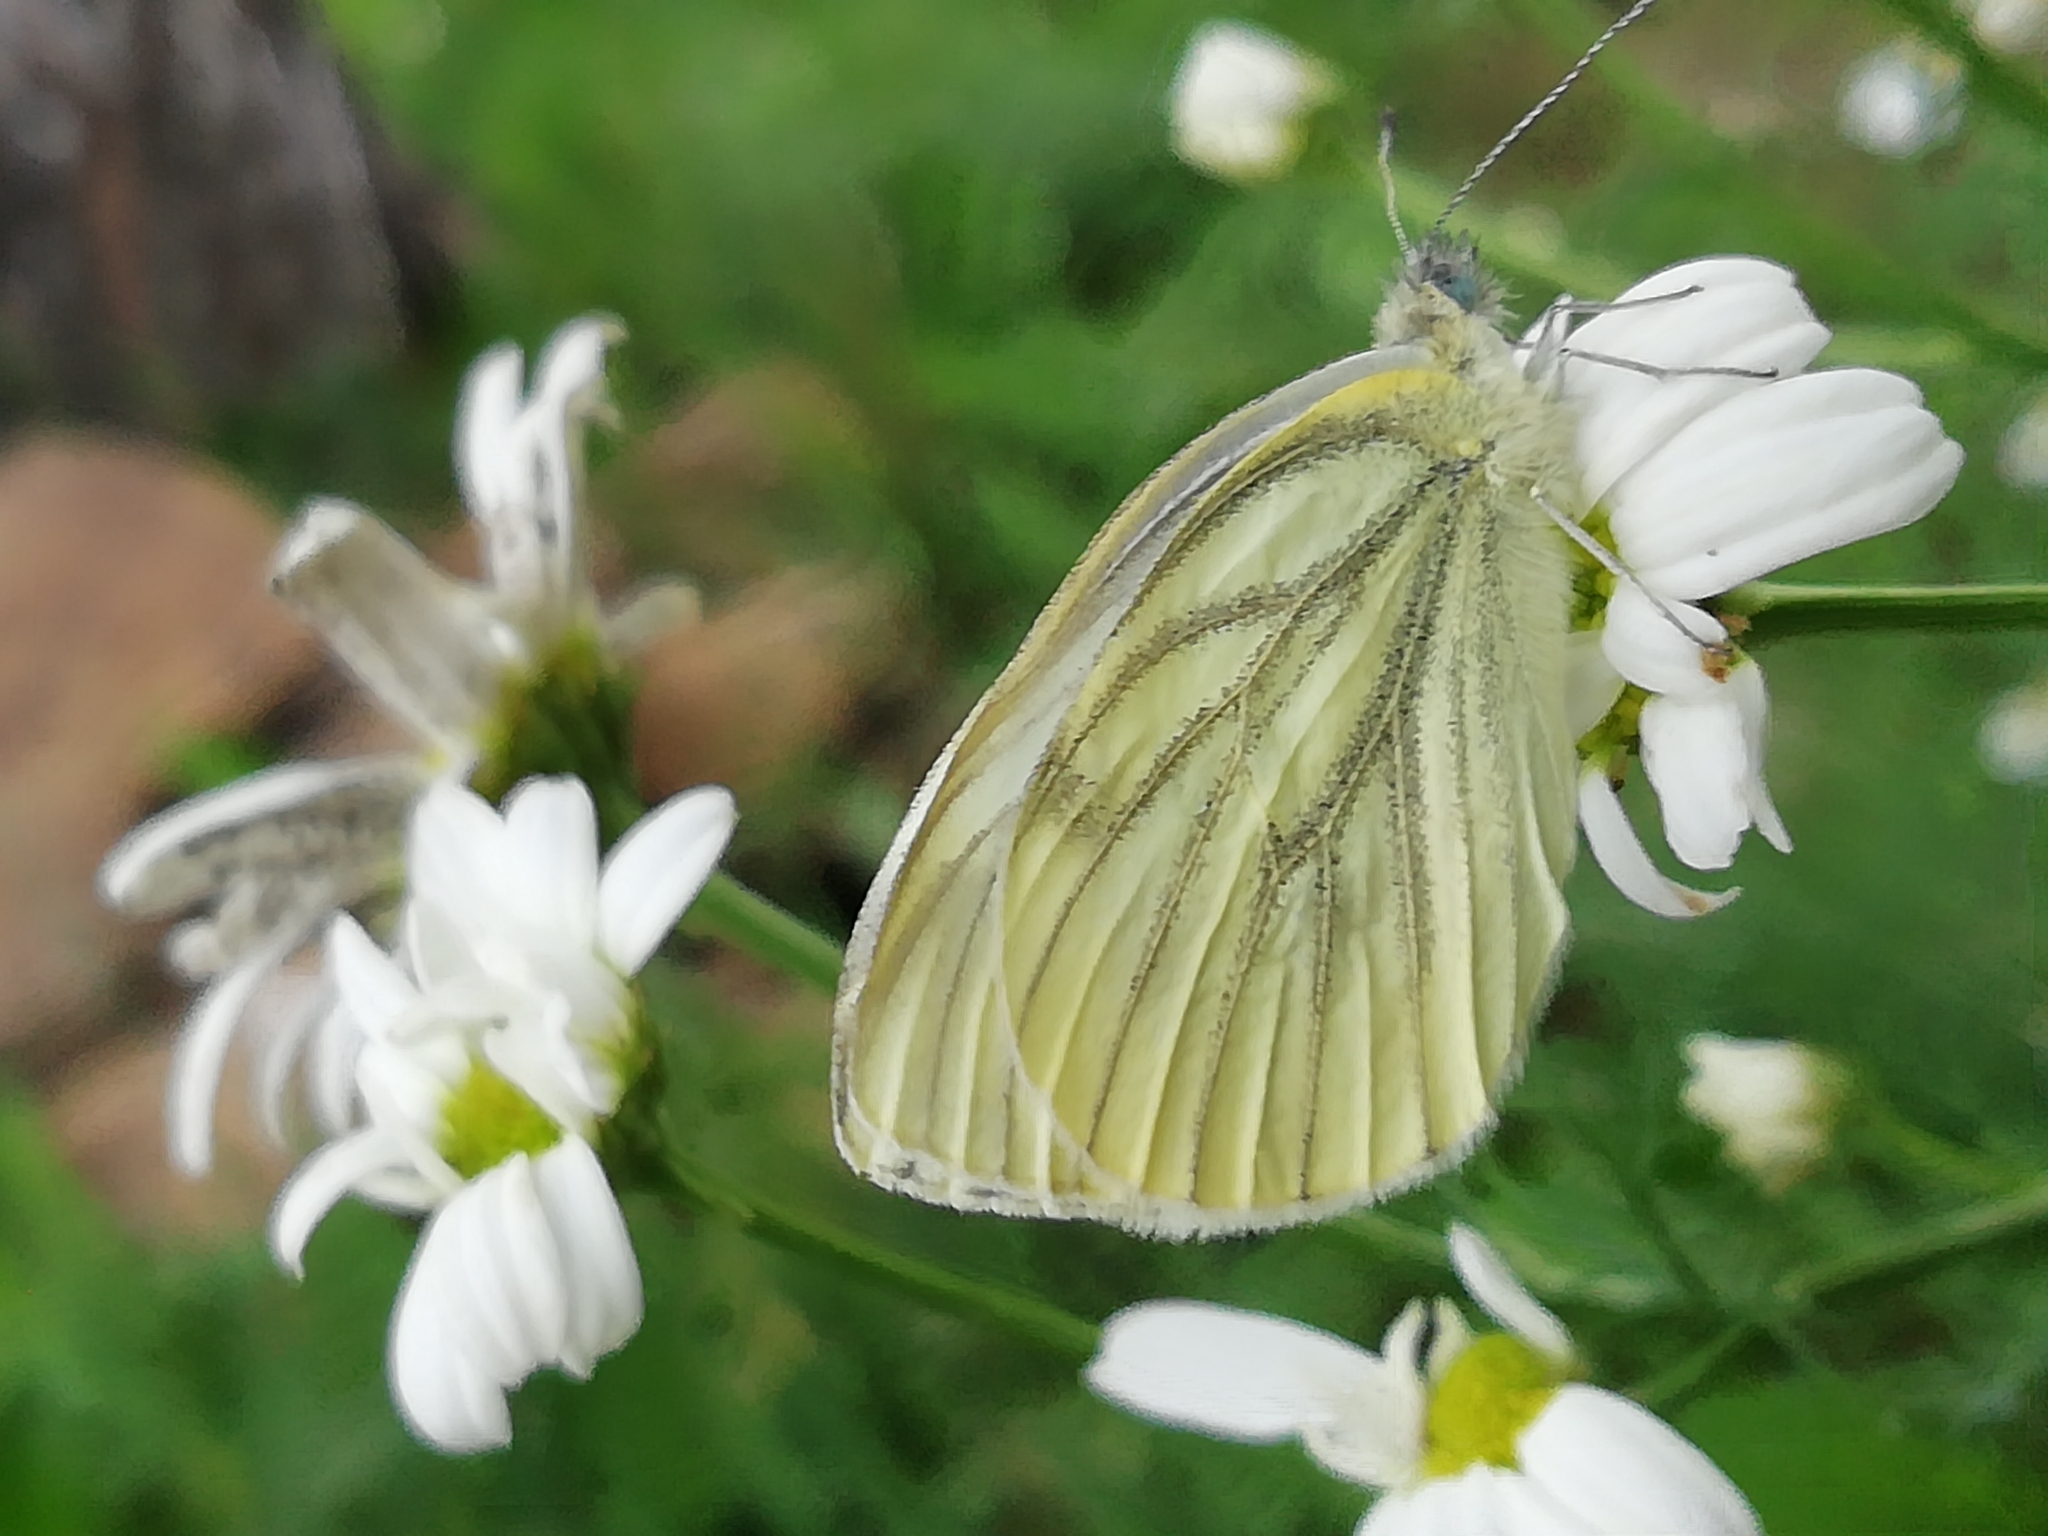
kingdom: Animalia
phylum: Arthropoda
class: Insecta
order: Lepidoptera
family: Pieridae
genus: Pieris
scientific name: Pieris napi
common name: Green-veined white
